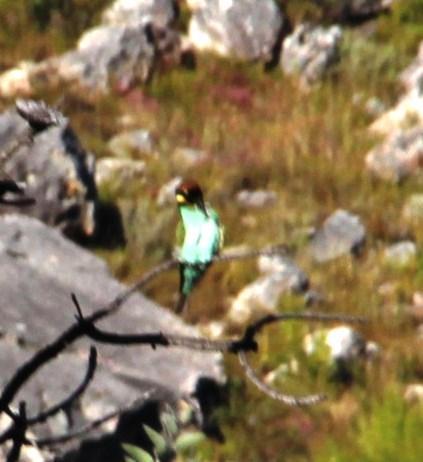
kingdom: Animalia
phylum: Chordata
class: Aves
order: Coraciiformes
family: Meropidae
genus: Merops
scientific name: Merops apiaster
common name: European bee-eater
